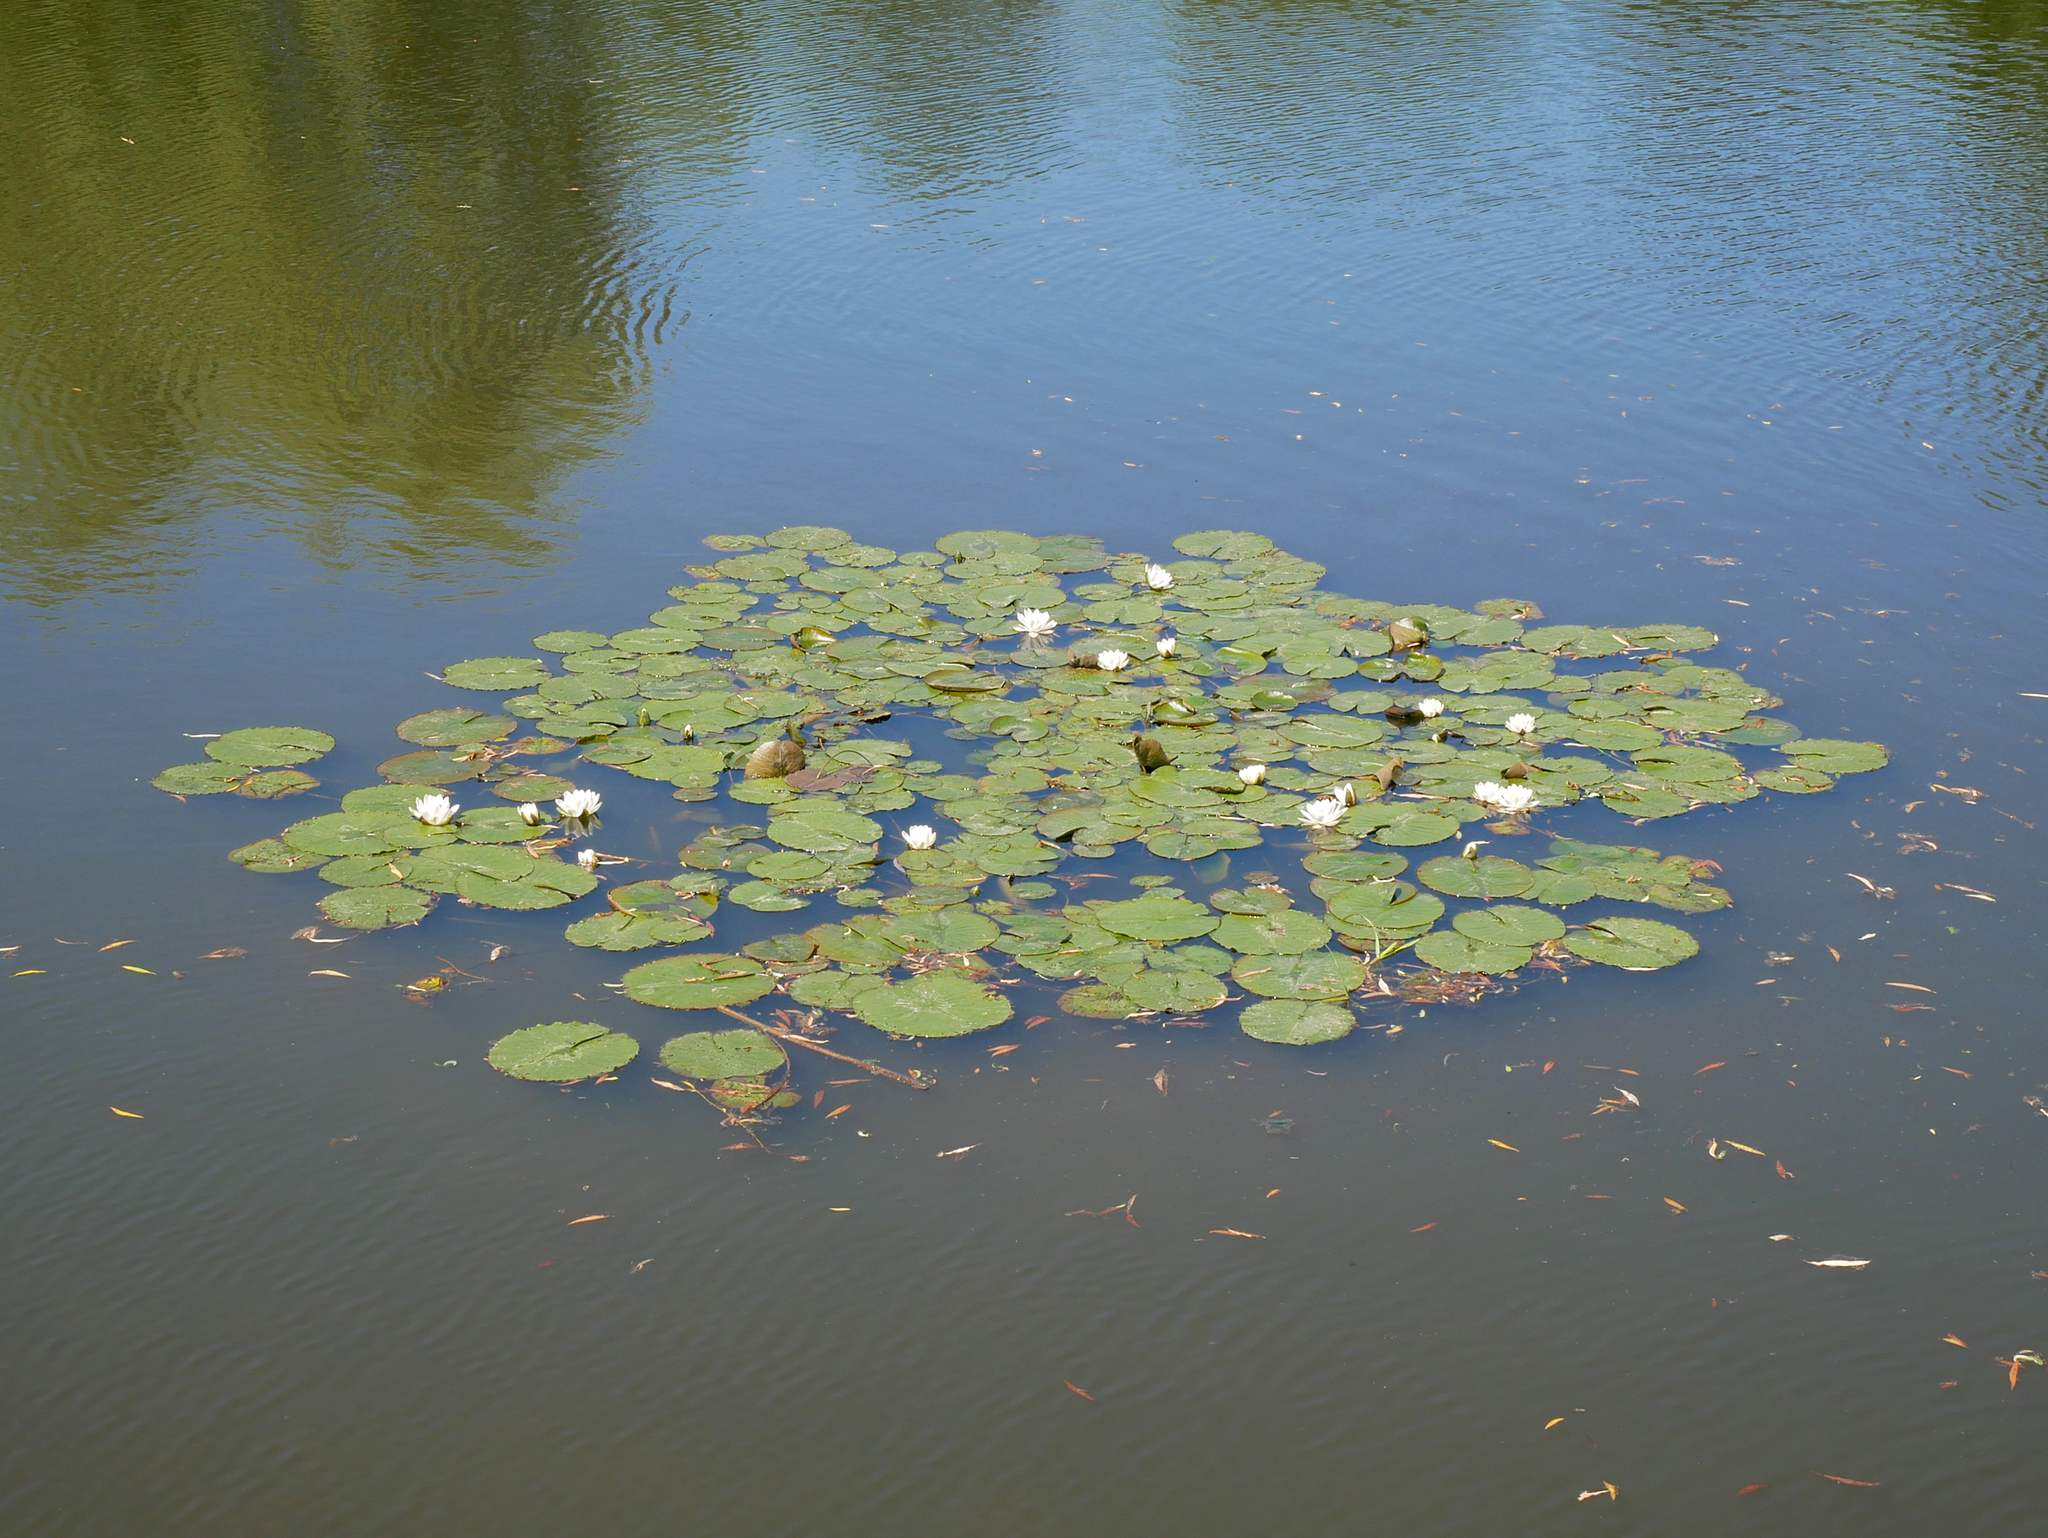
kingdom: Plantae
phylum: Tracheophyta
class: Magnoliopsida
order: Nymphaeales
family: Nymphaeaceae
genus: Nymphaea
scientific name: Nymphaea alba
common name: White water-lily
